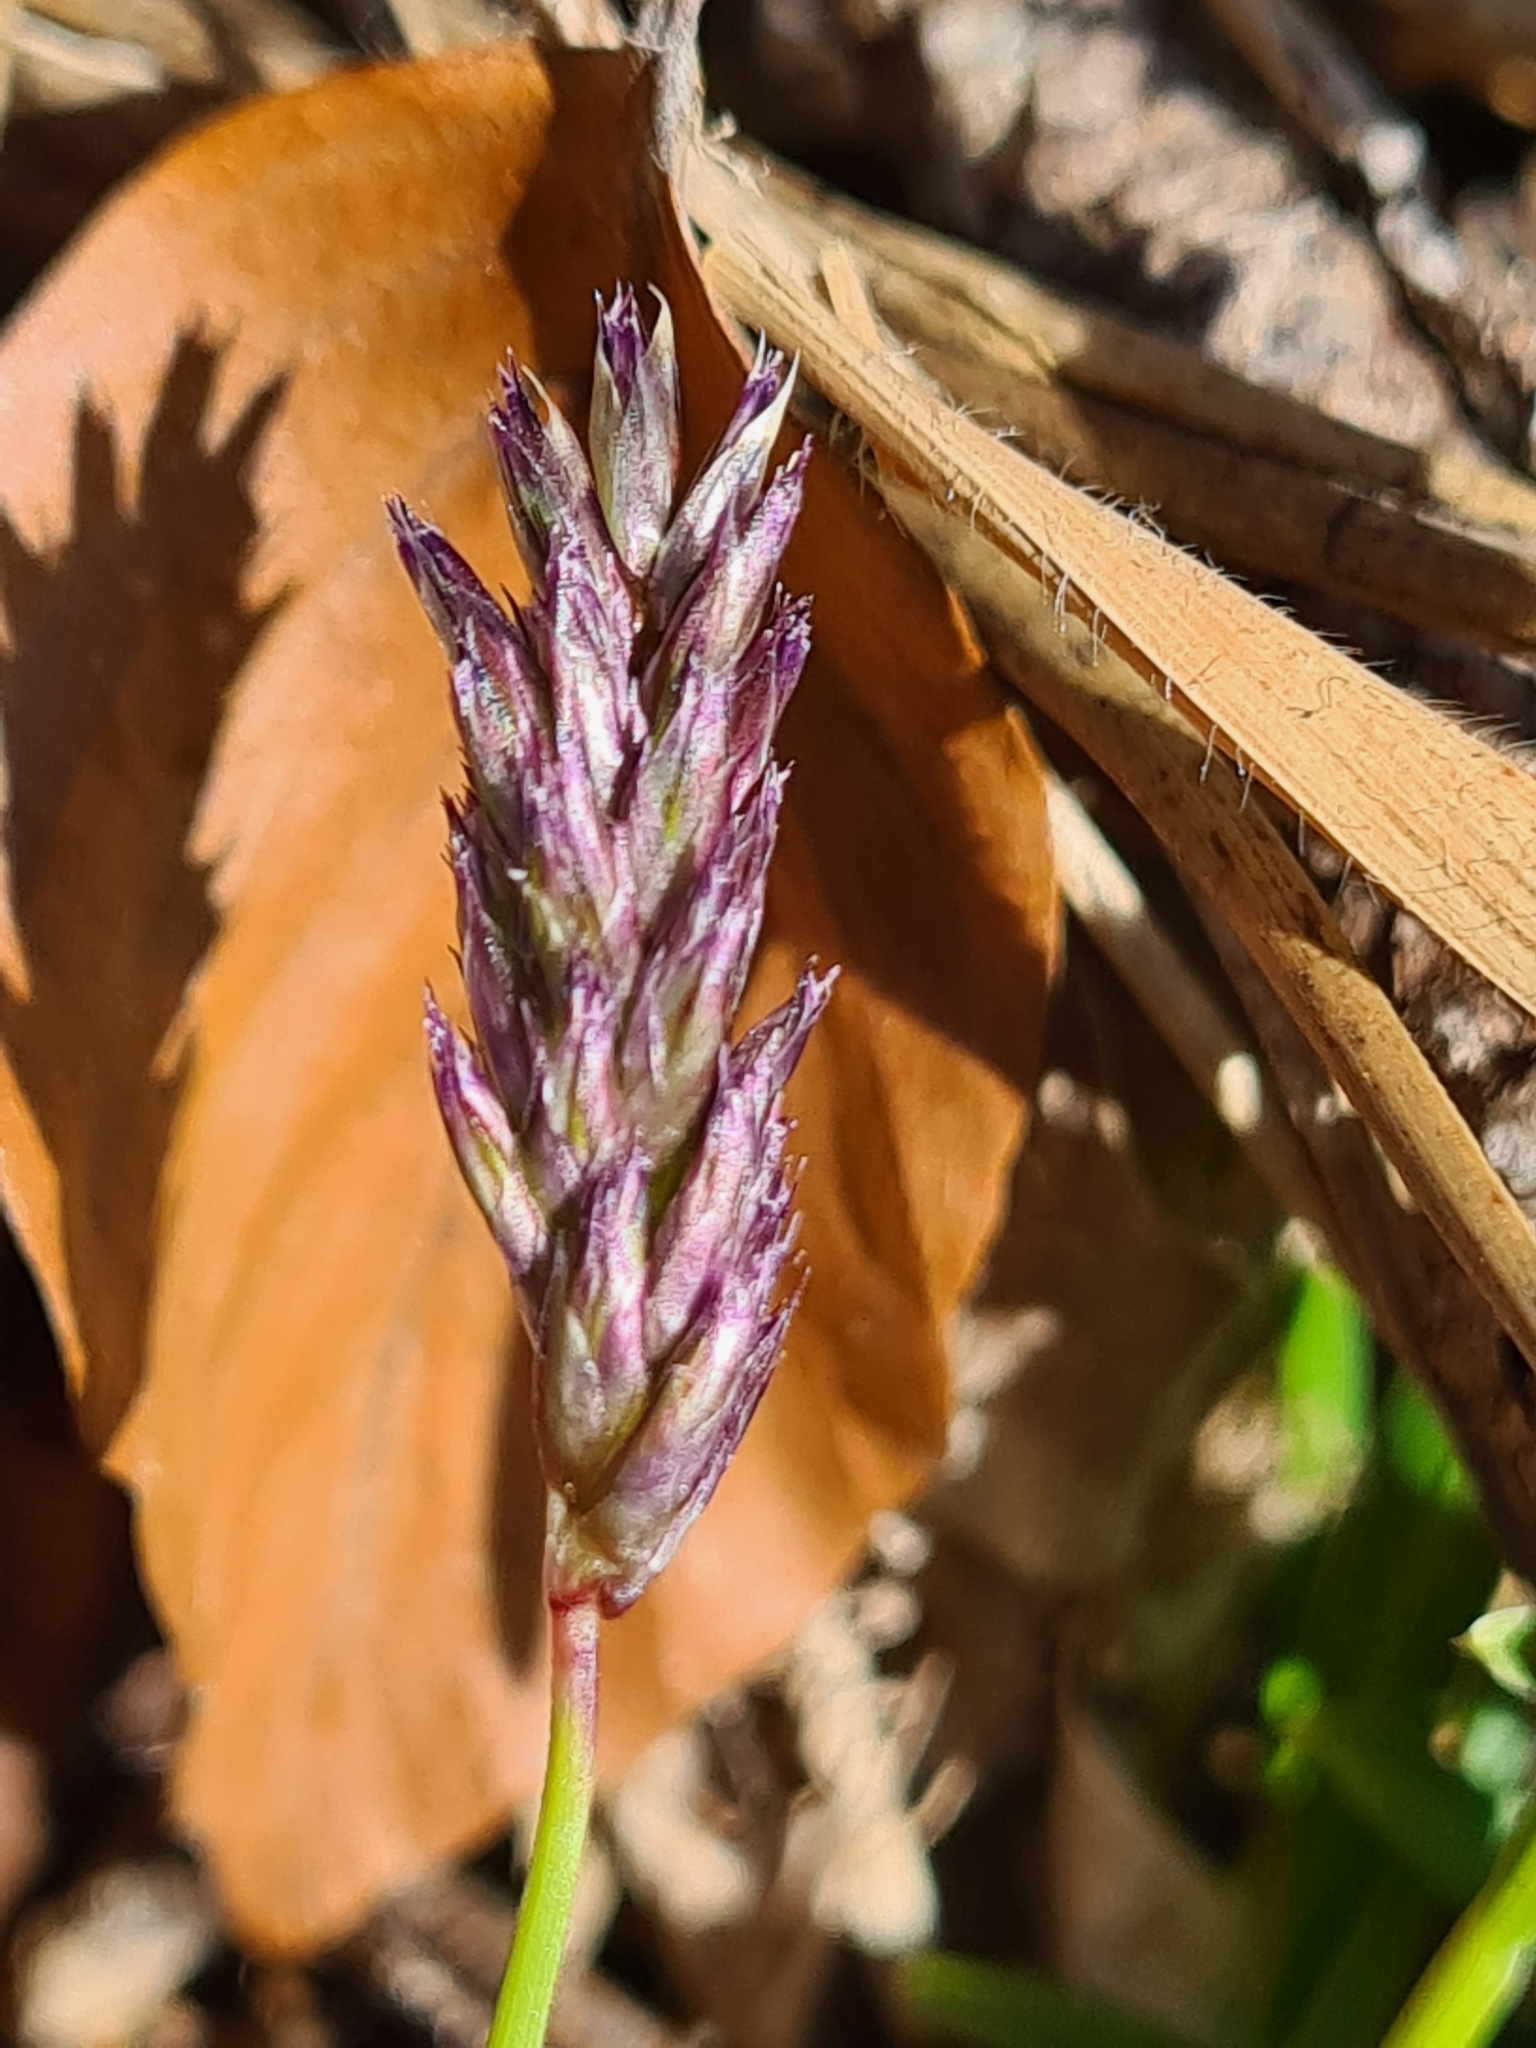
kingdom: Plantae
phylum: Tracheophyta
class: Liliopsida
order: Poales
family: Poaceae
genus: Sesleria
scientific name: Sesleria caerulea
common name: Blue moor-grass
